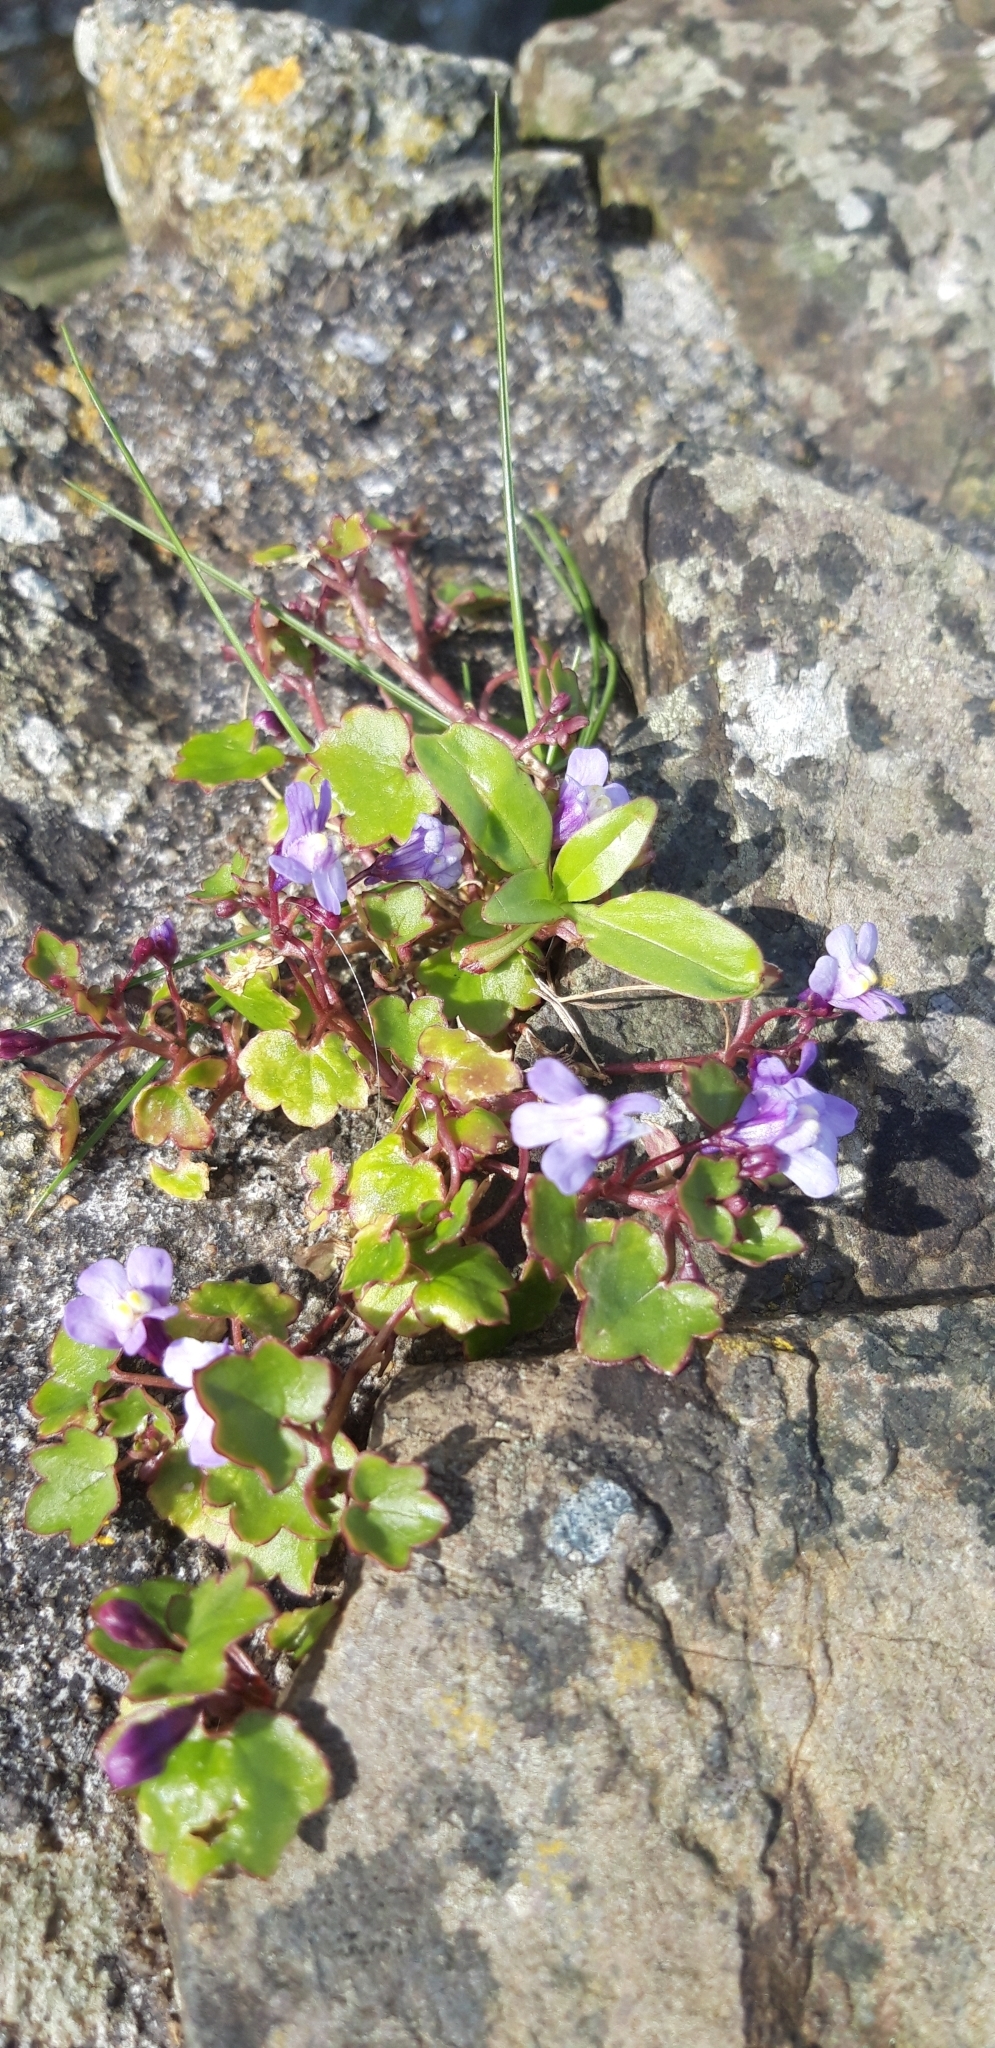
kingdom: Plantae
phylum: Tracheophyta
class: Magnoliopsida
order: Lamiales
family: Plantaginaceae
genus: Cymbalaria
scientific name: Cymbalaria muralis
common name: Ivy-leaved toadflax
